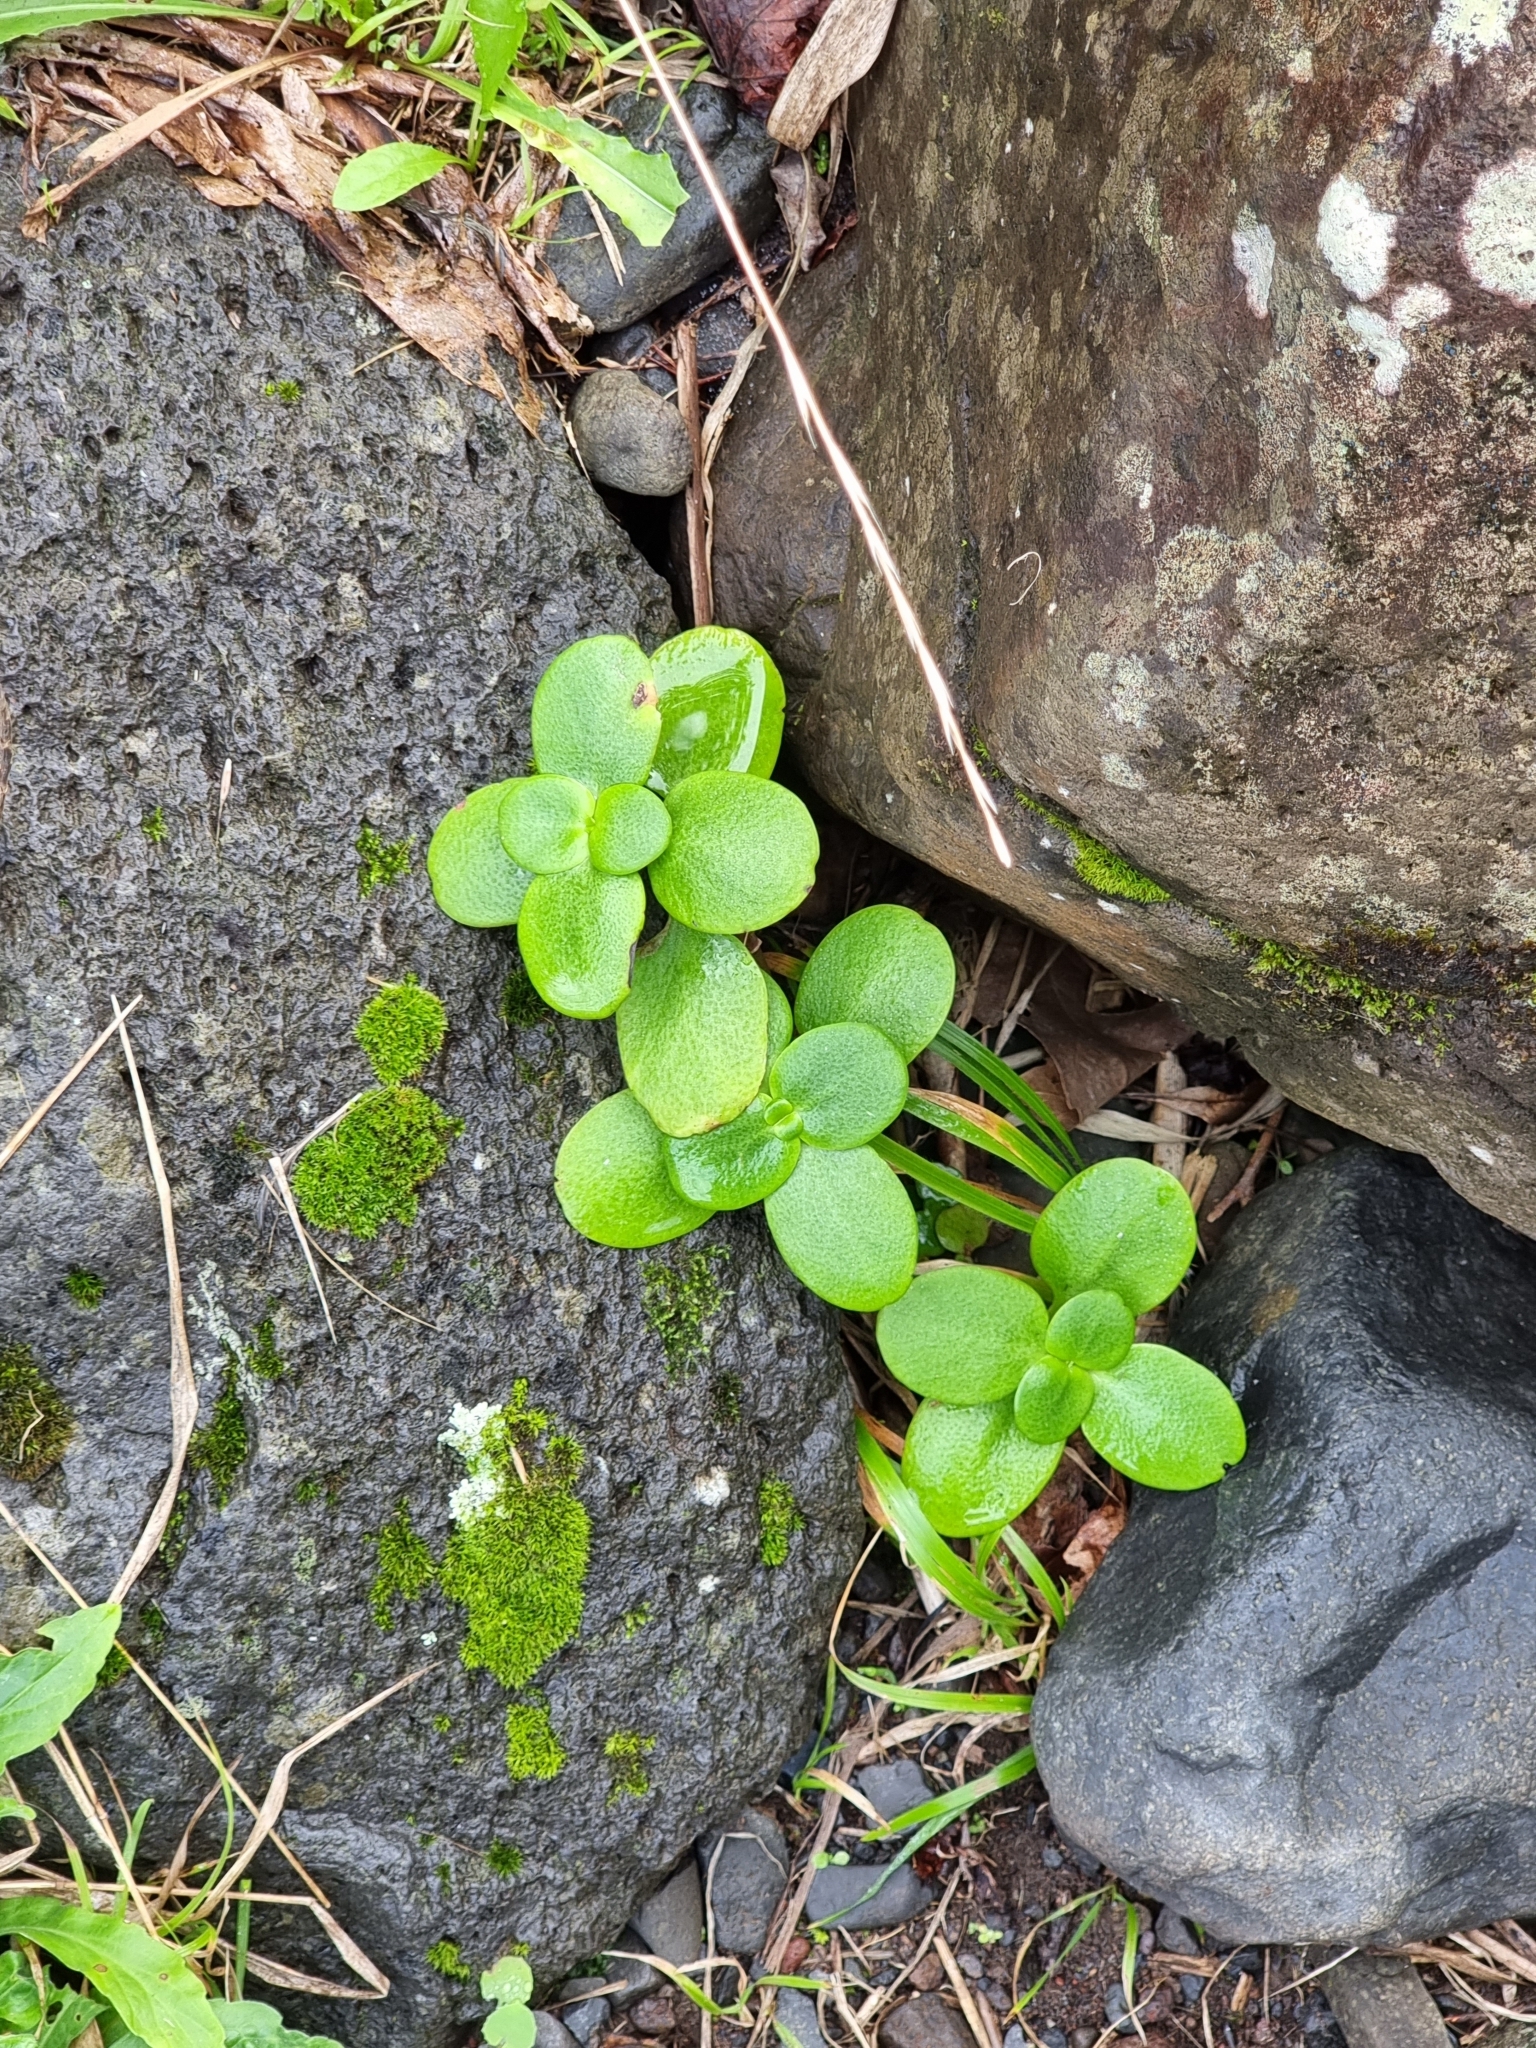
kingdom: Plantae
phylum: Tracheophyta
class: Magnoliopsida
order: Saxifragales
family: Crassulaceae
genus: Crassula
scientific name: Crassula multicava
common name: Cape province pygmyweed
